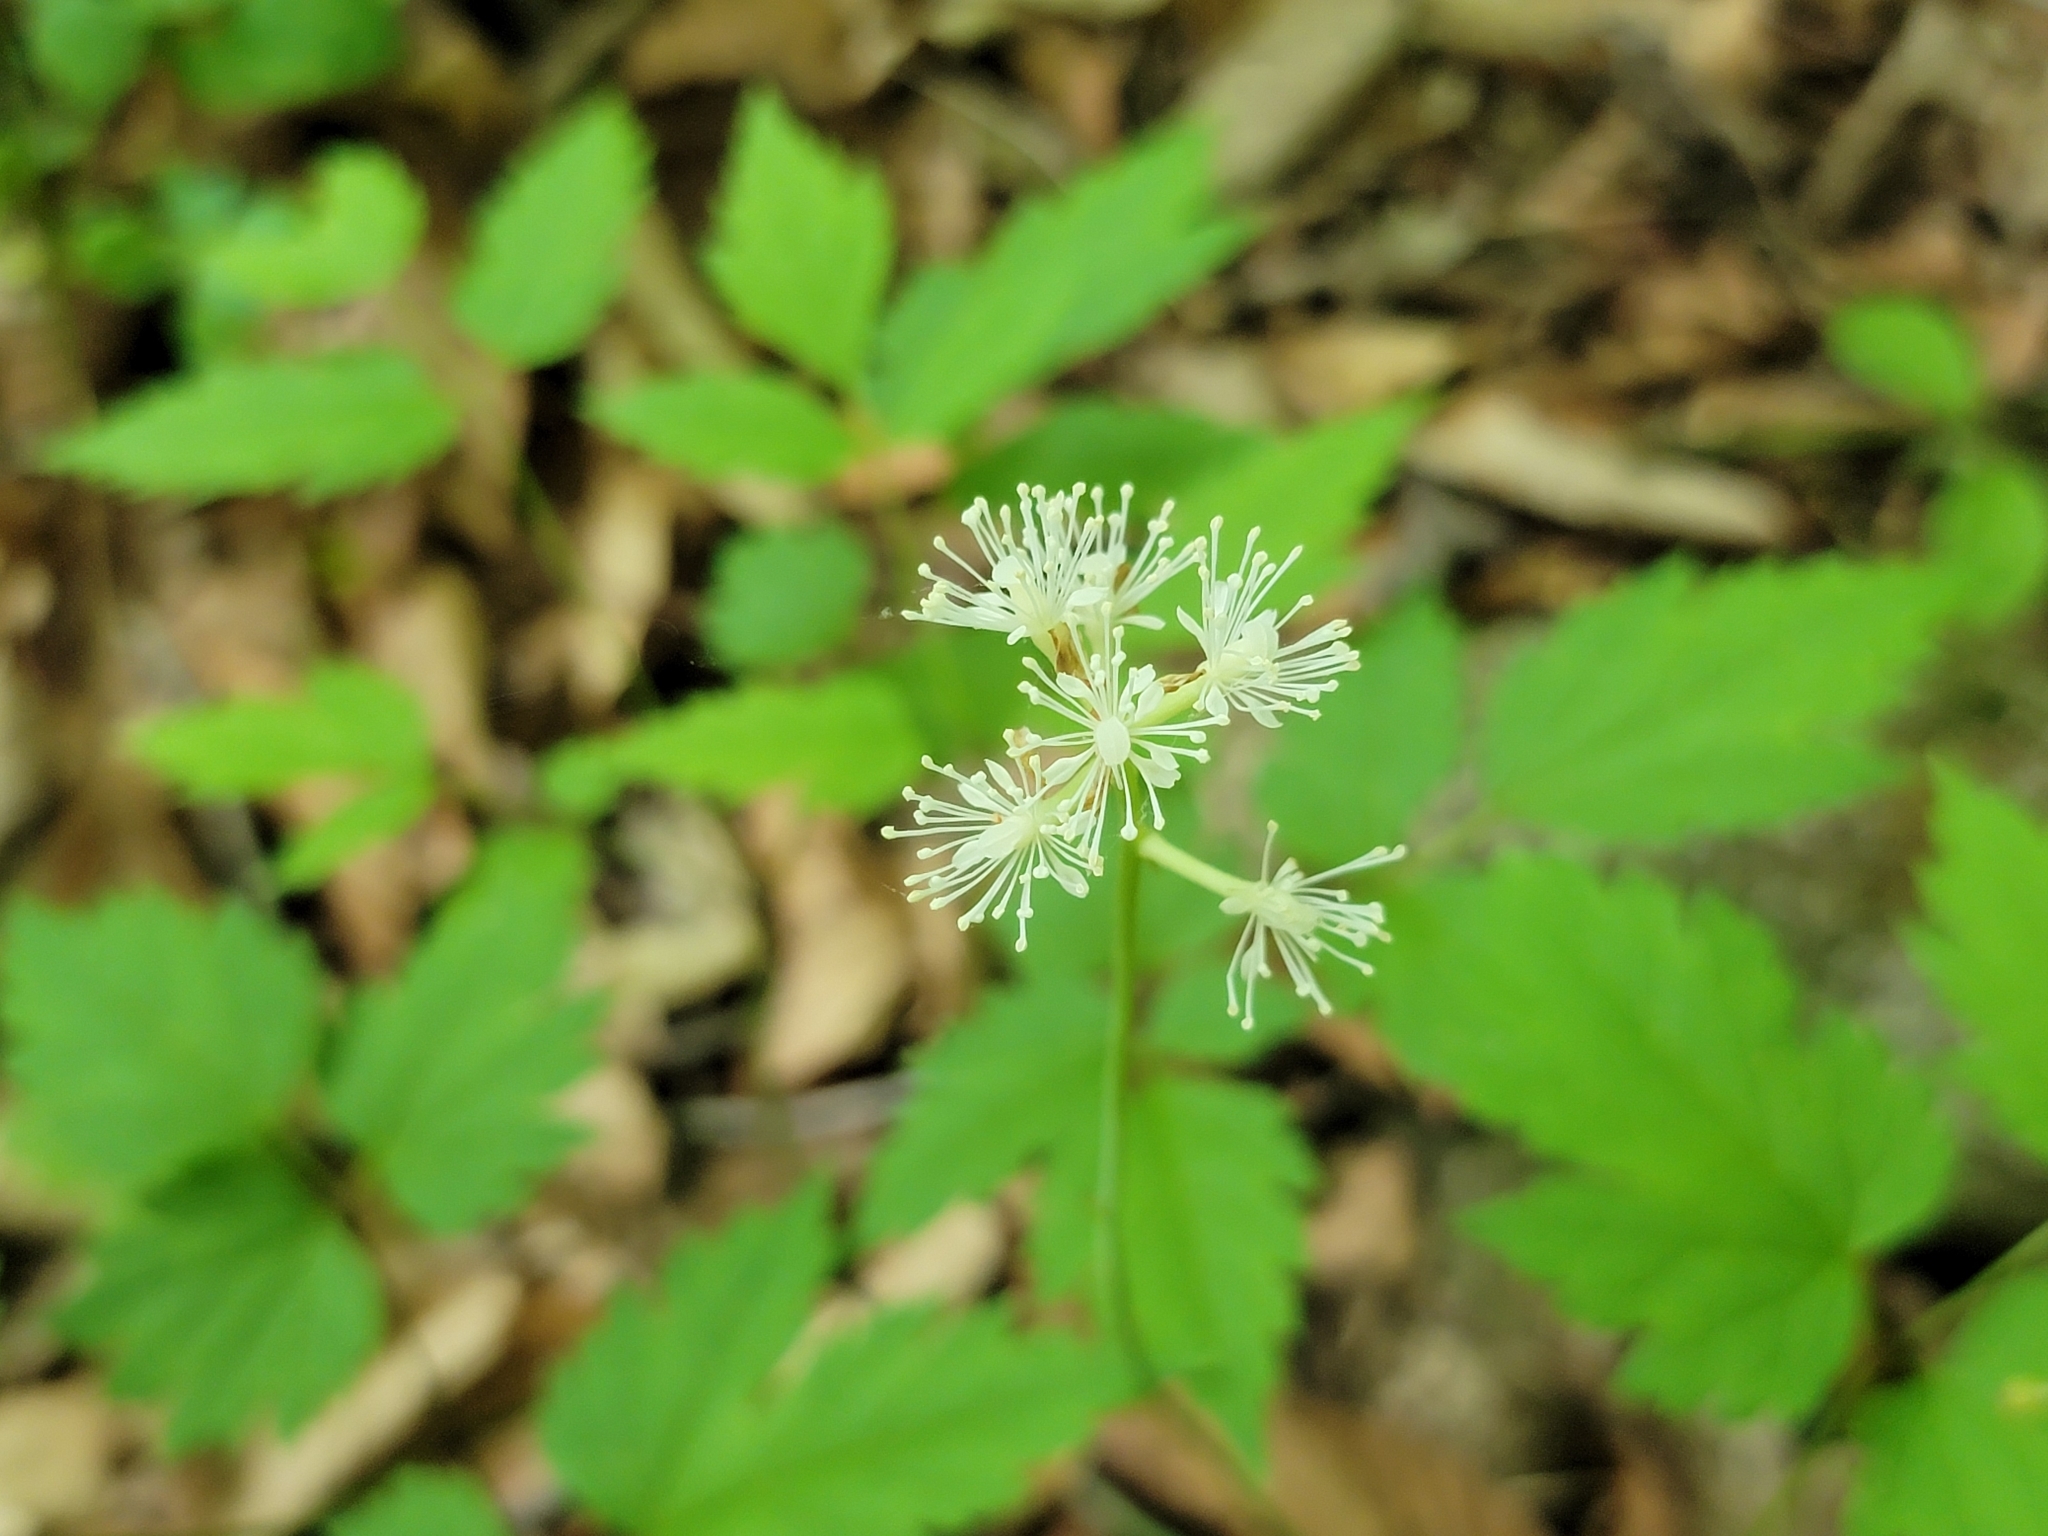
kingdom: Plantae
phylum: Tracheophyta
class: Magnoliopsida
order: Ranunculales
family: Ranunculaceae
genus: Actaea
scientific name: Actaea pachypoda
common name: Doll's-eyes
